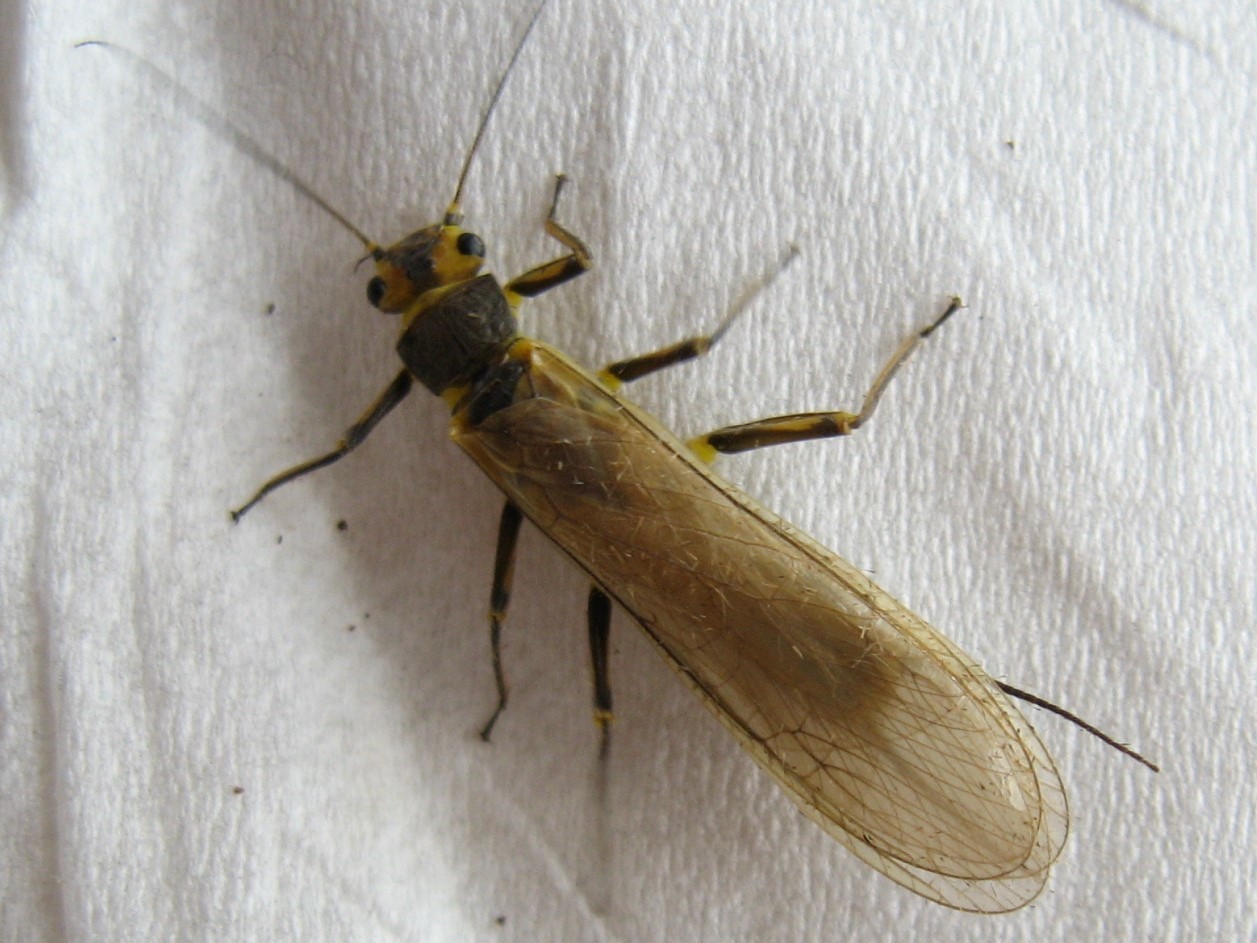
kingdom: Animalia
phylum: Arthropoda
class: Insecta
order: Plecoptera
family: Perlidae
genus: Agnetina
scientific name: Agnetina capitata
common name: Northern stone
